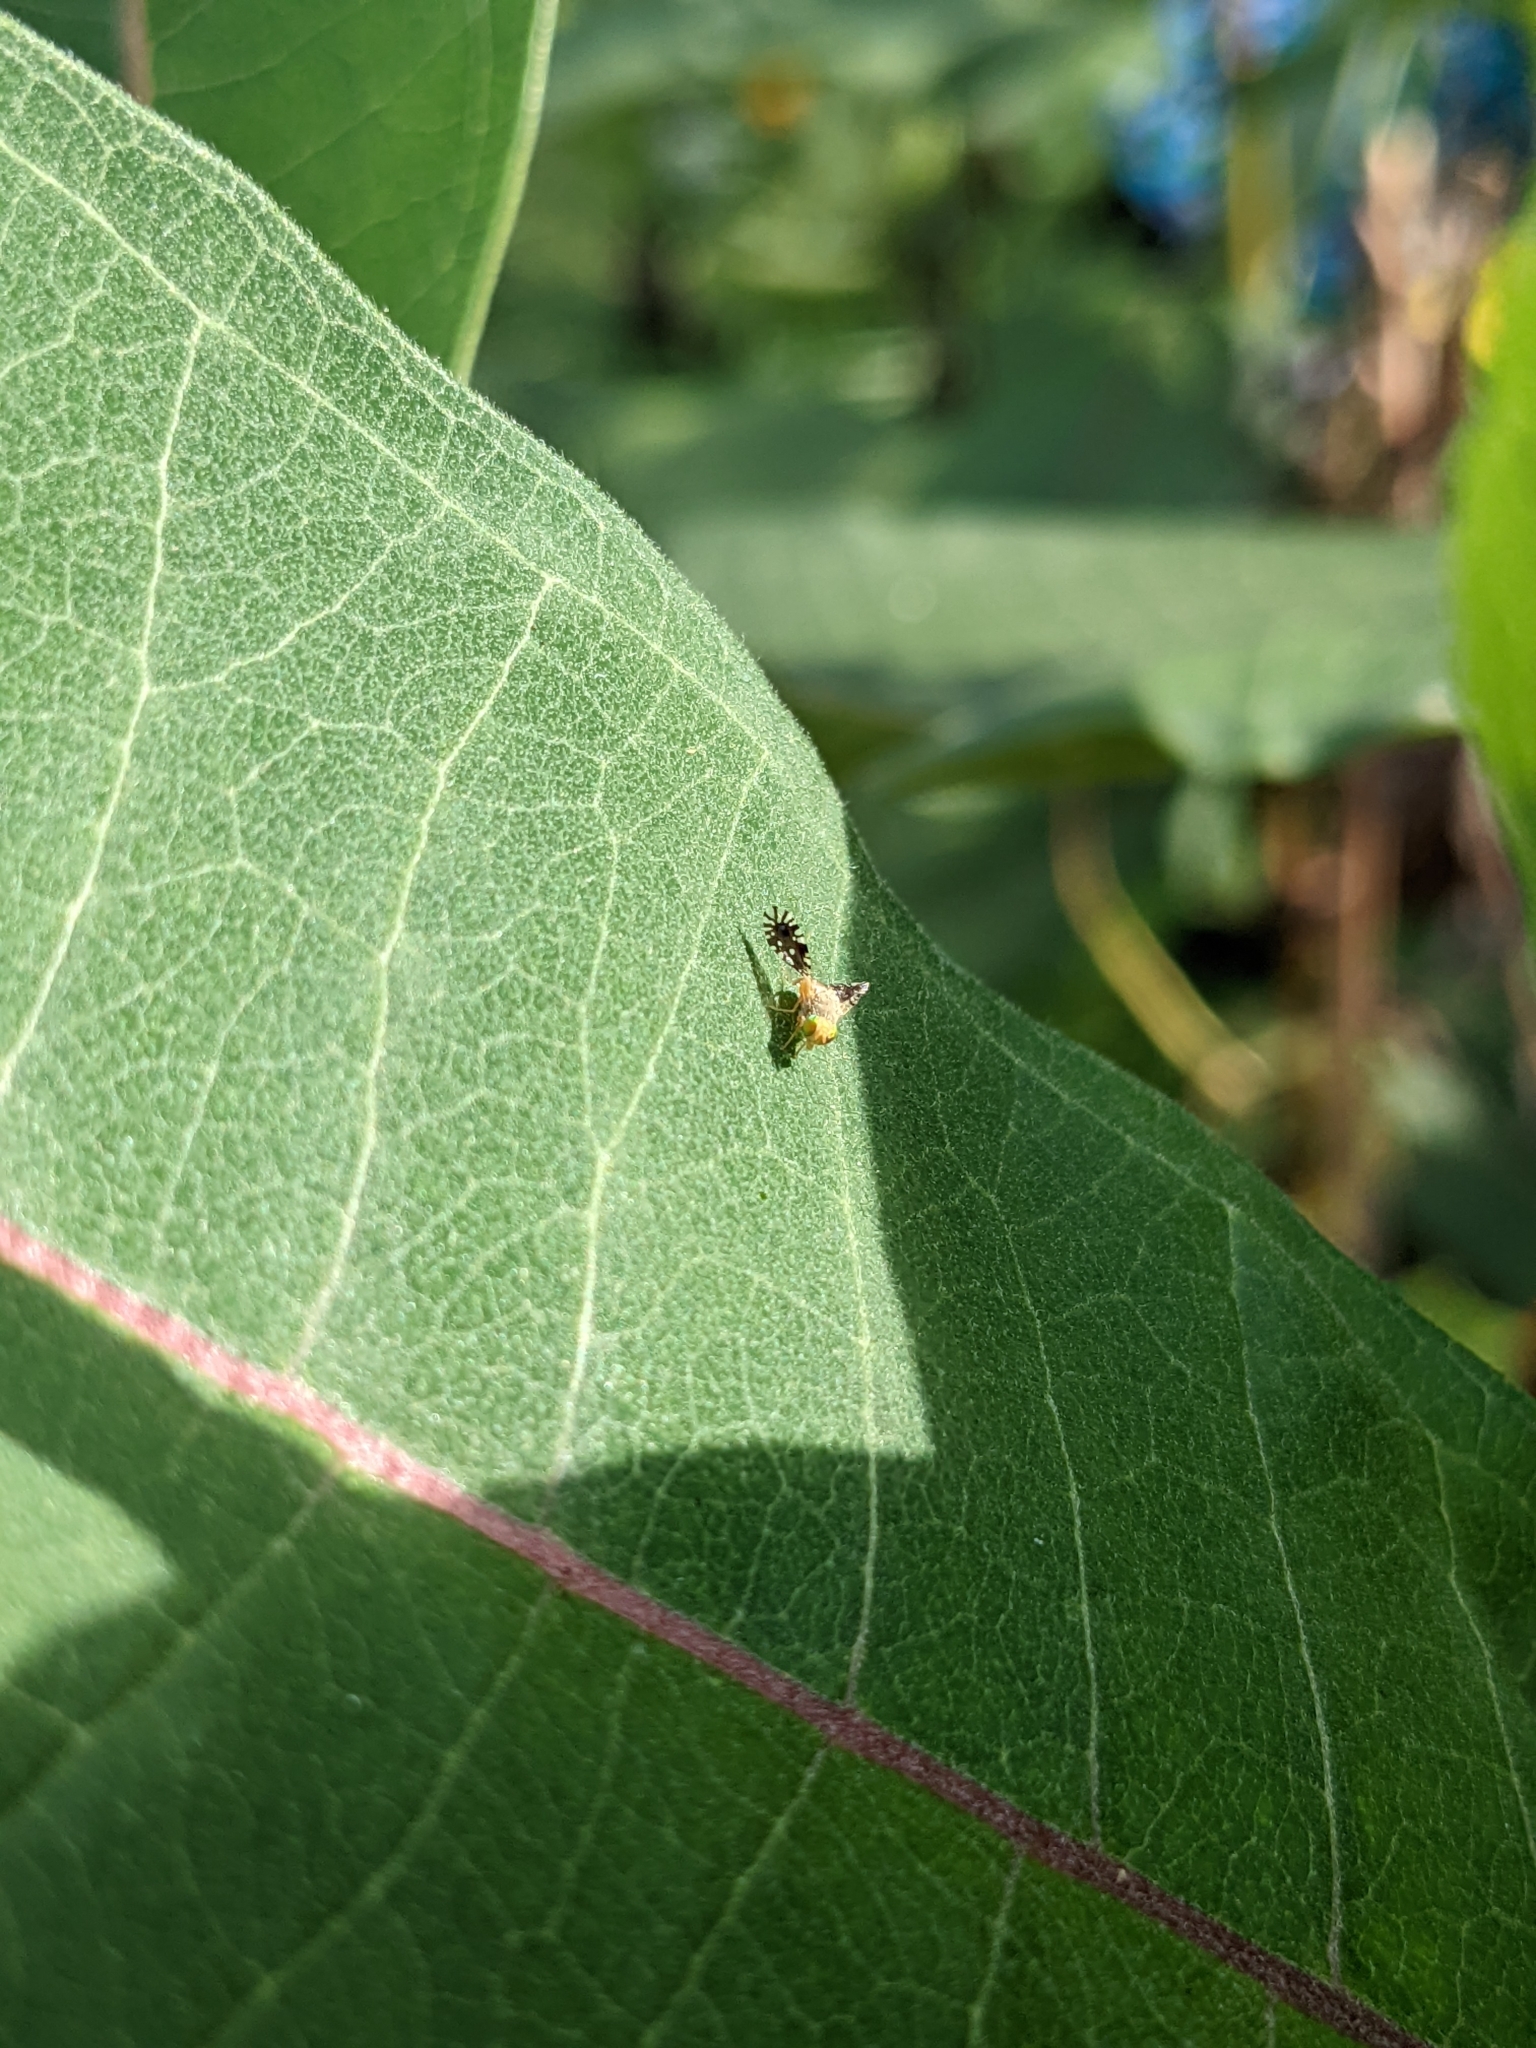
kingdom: Animalia
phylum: Arthropoda
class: Insecta
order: Diptera
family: Tephritidae
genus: Euaresta
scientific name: Euaresta bella
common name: Common ragweed fruit fly
